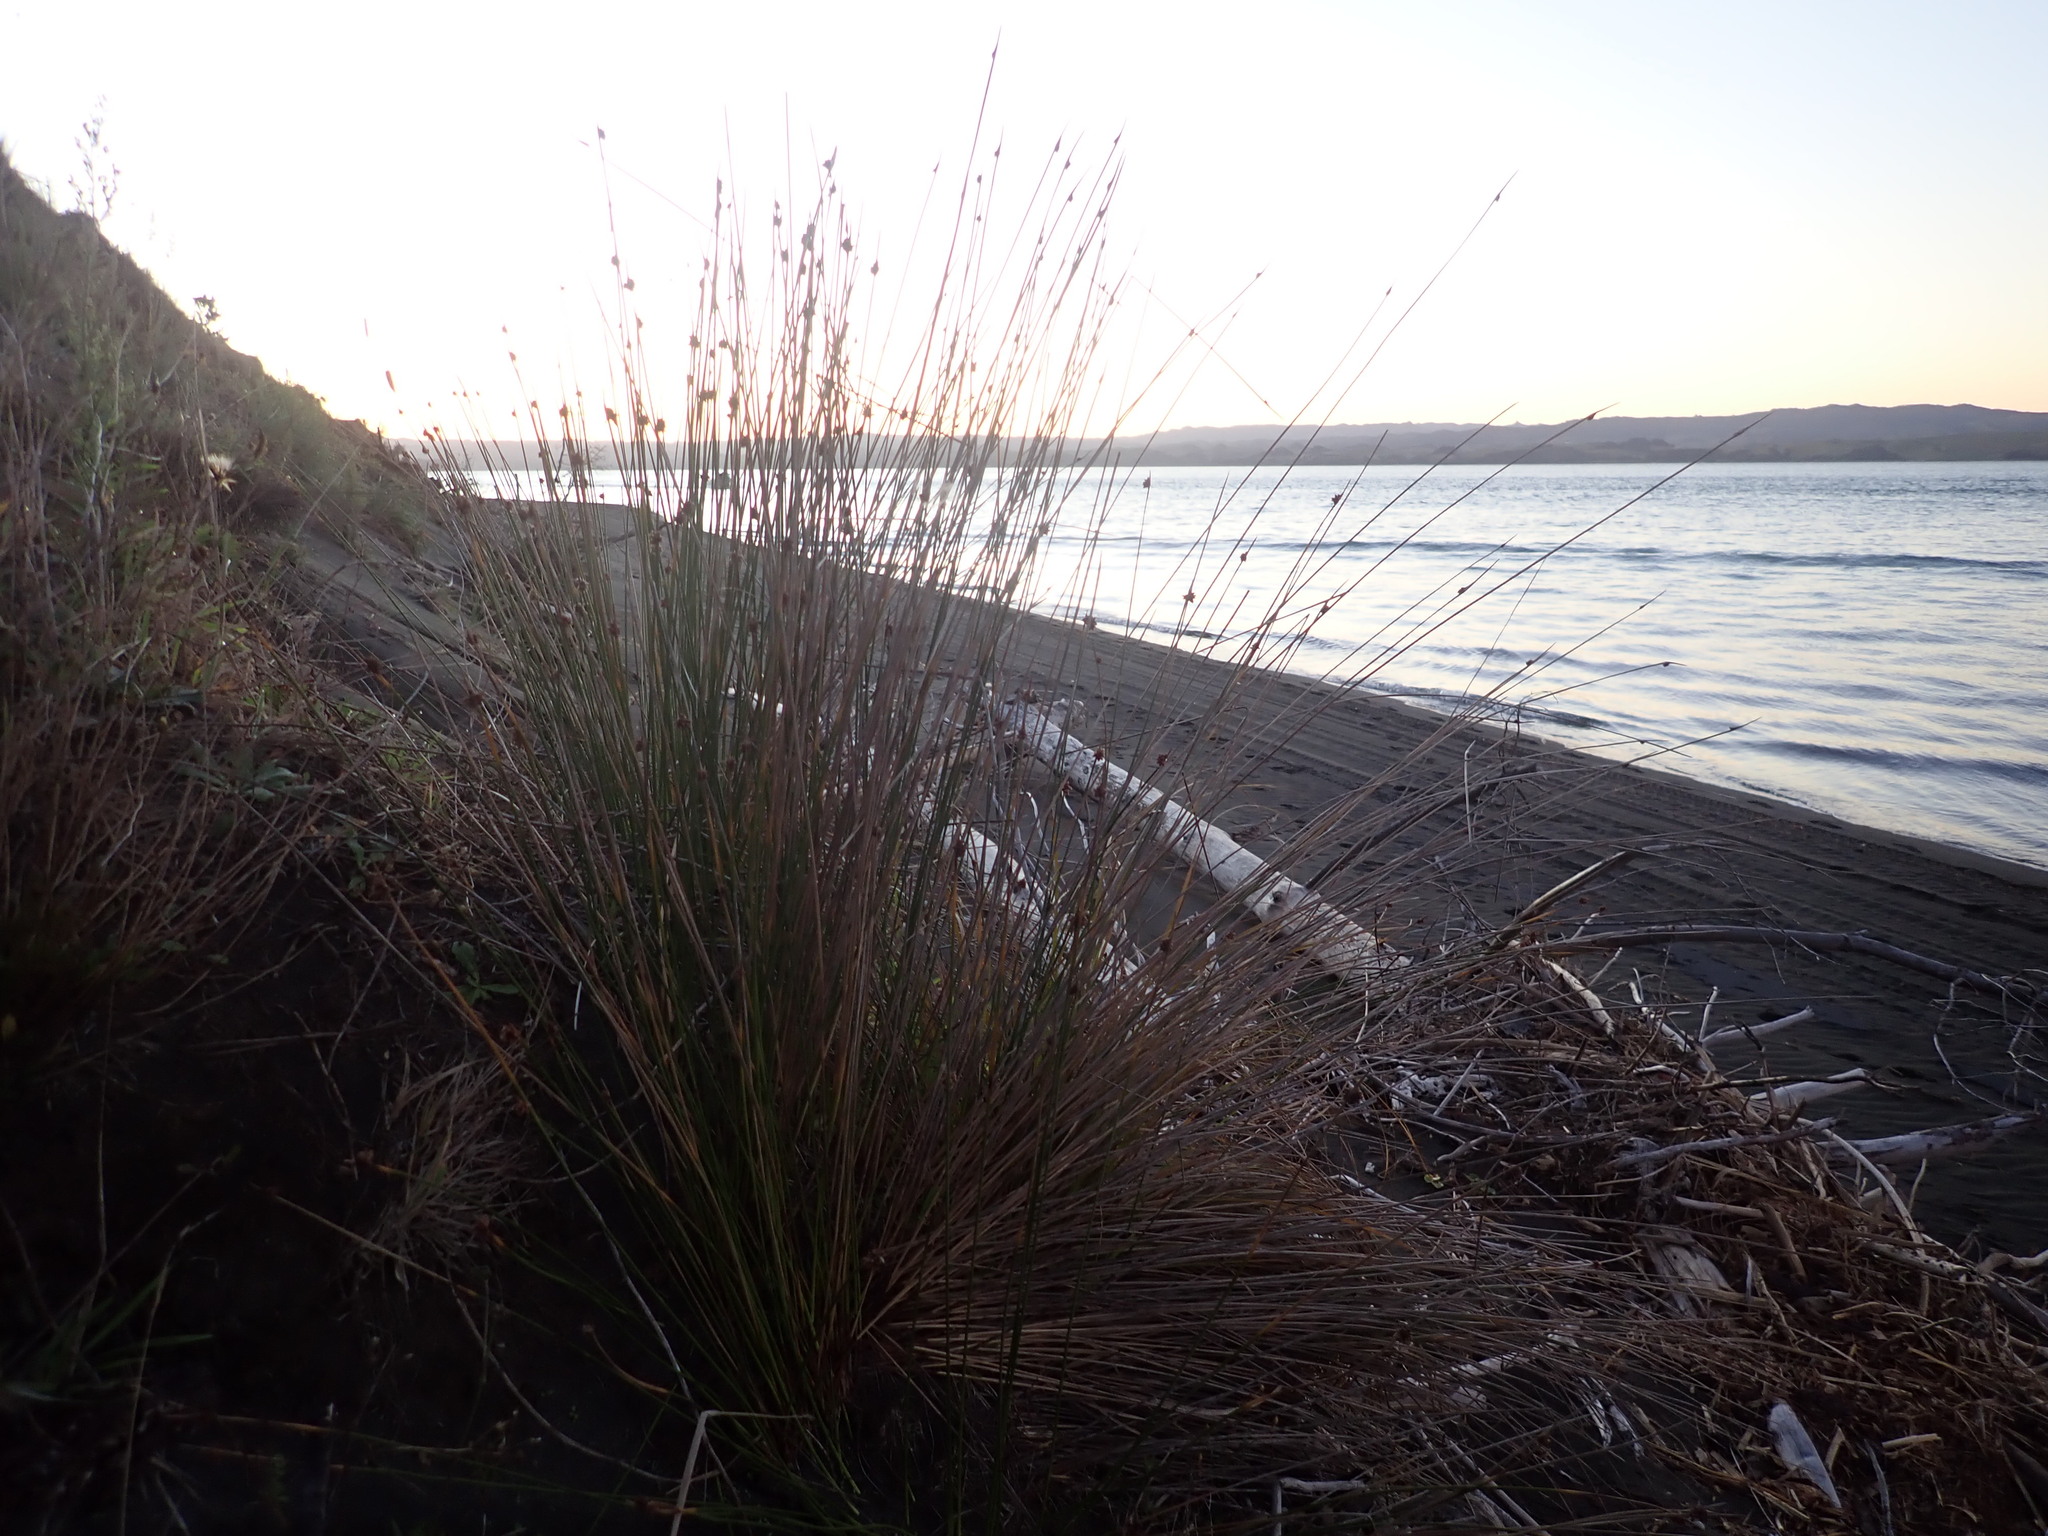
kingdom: Plantae
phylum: Tracheophyta
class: Liliopsida
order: Poales
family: Cyperaceae
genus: Ficinia
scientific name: Ficinia nodosa
